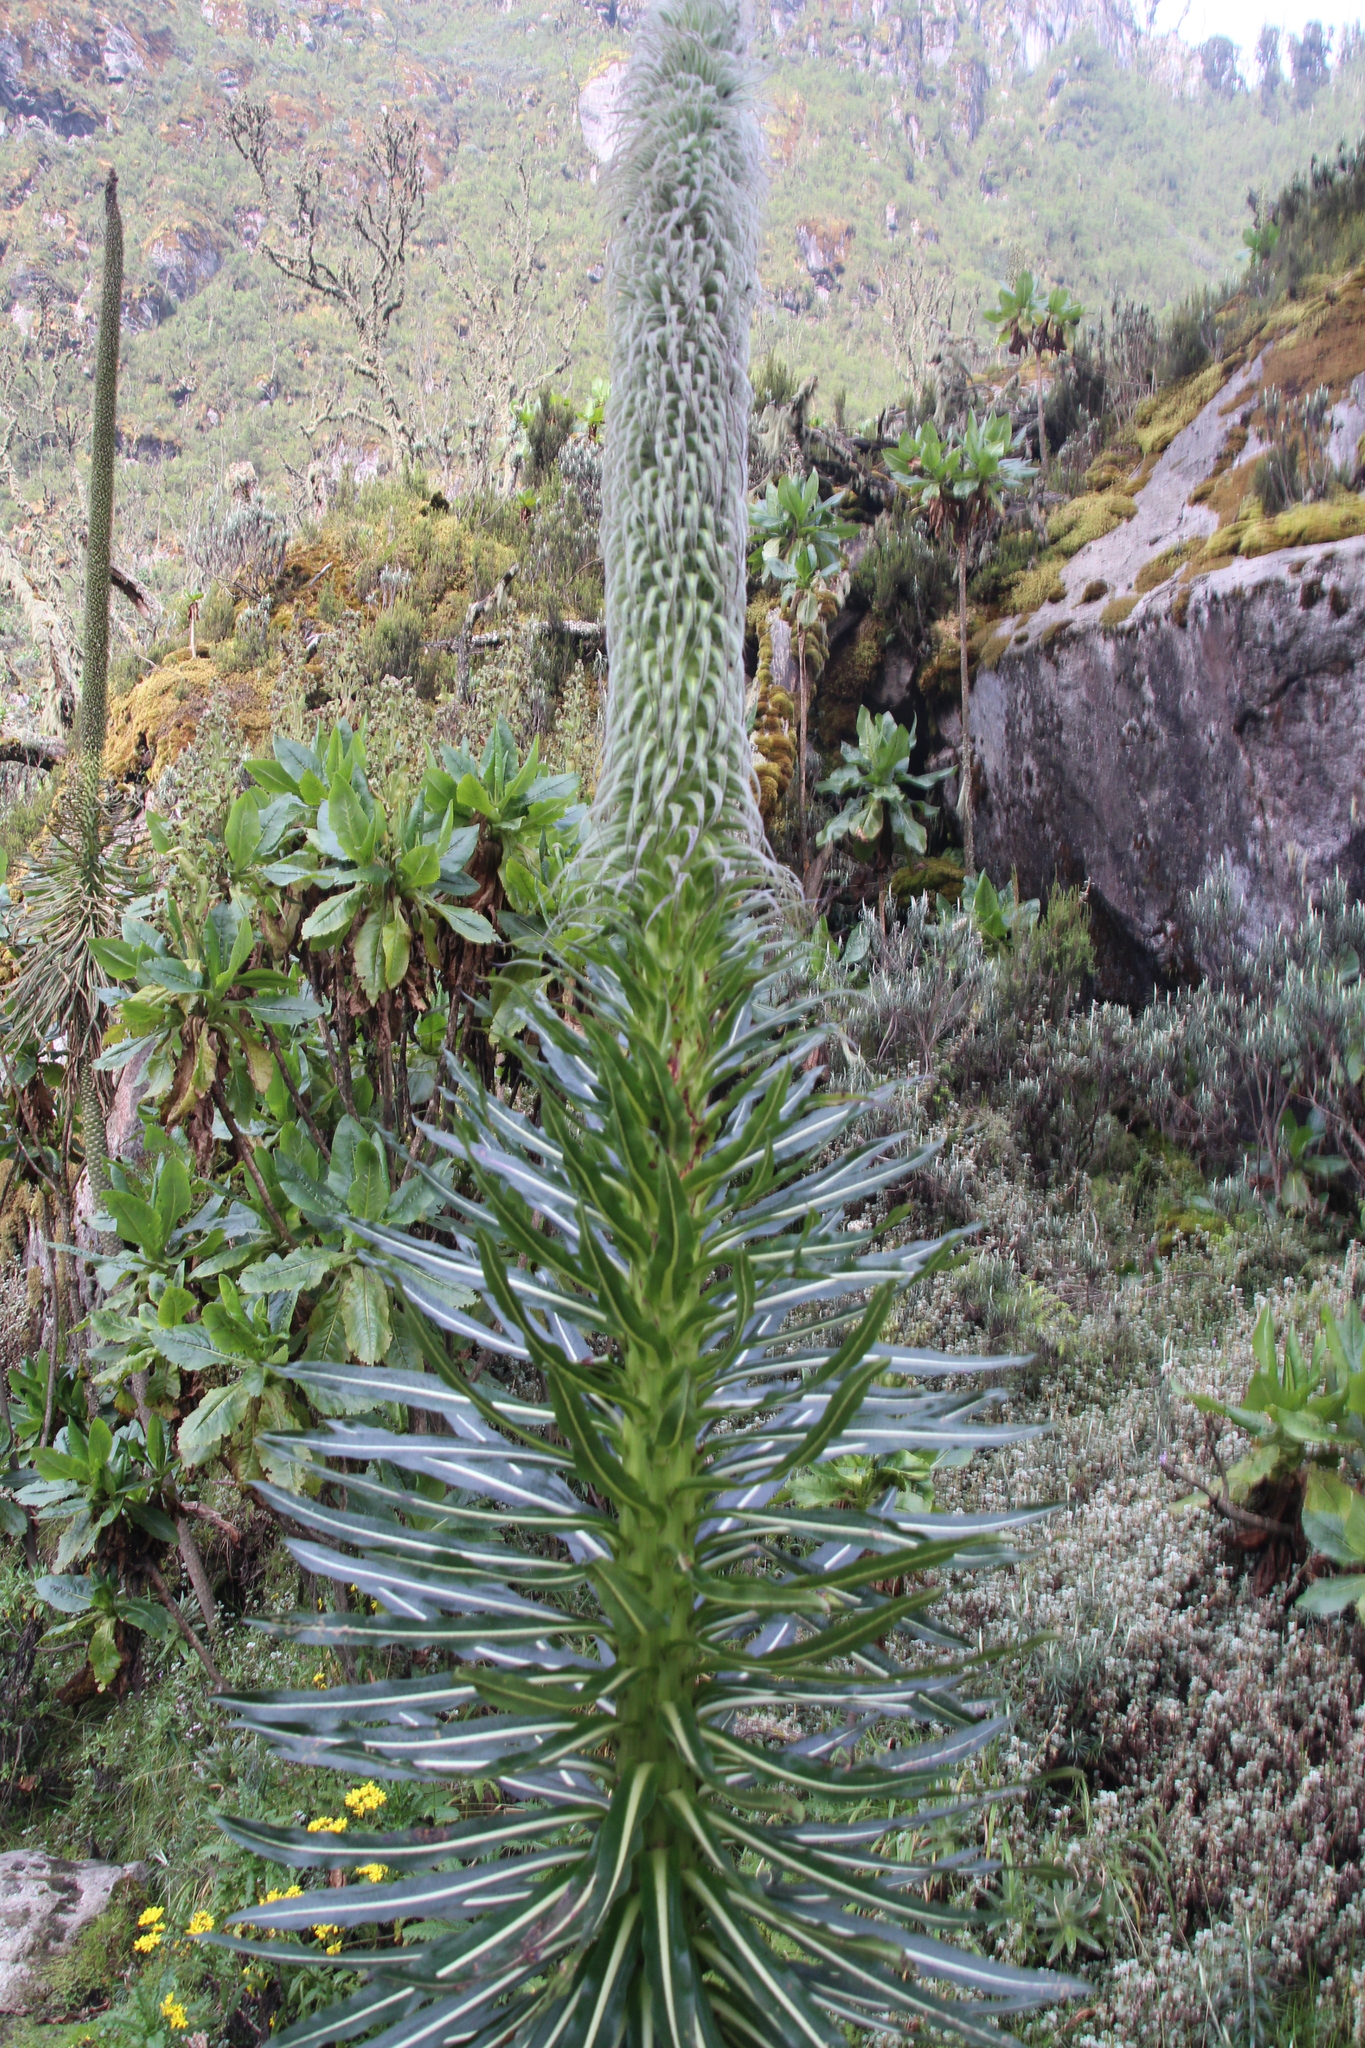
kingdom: Plantae
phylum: Tracheophyta
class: Magnoliopsida
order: Asterales
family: Campanulaceae
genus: Lobelia
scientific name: Lobelia wollastonii
